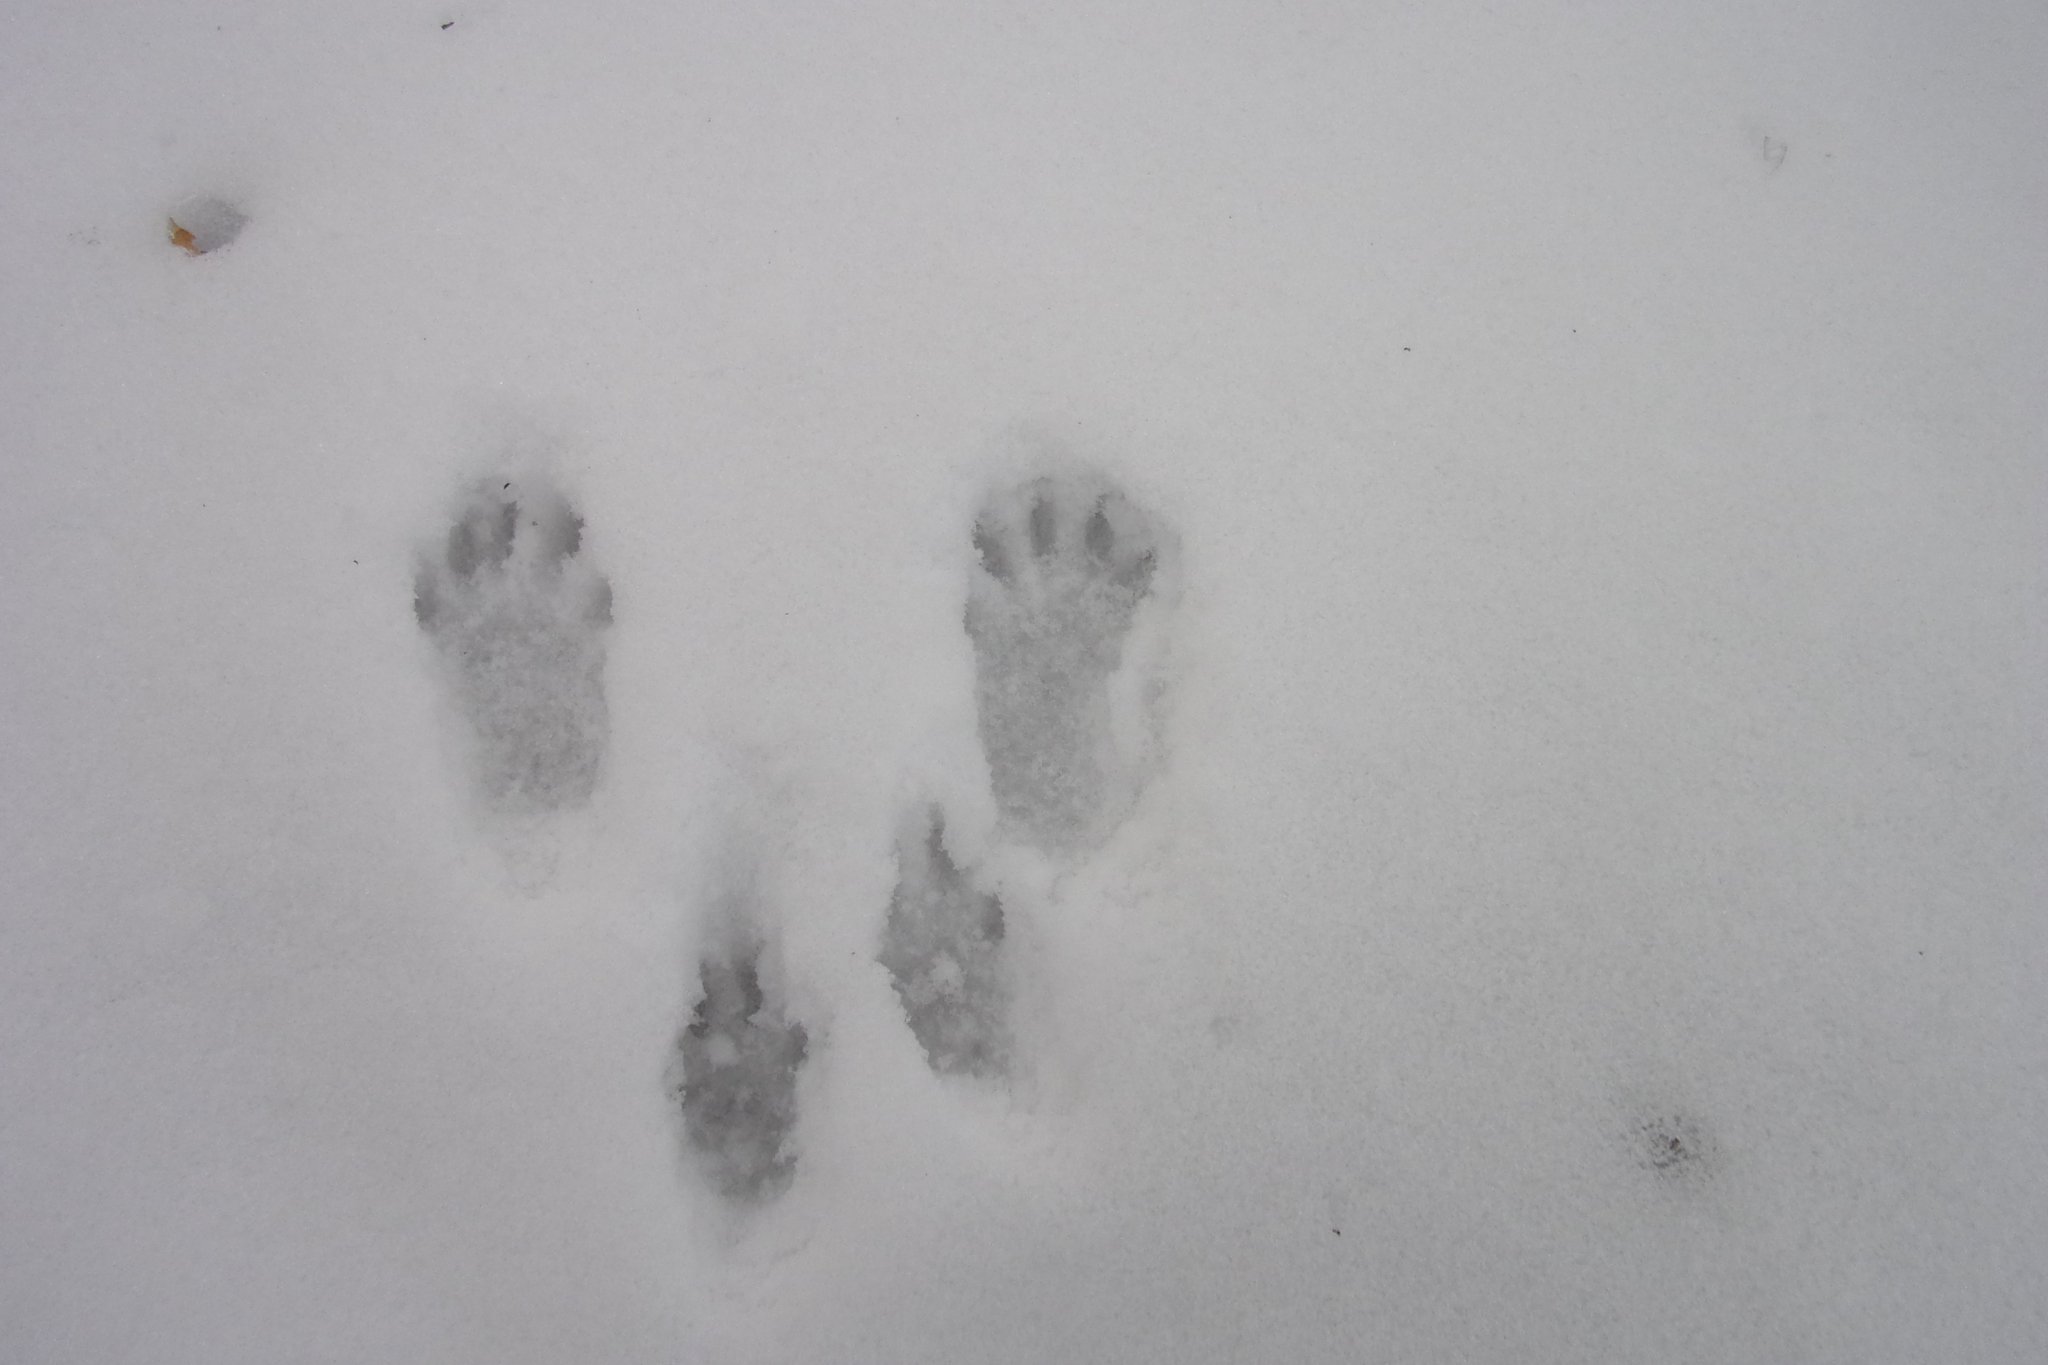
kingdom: Animalia
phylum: Chordata
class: Mammalia
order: Rodentia
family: Sciuridae
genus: Sciurus
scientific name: Sciurus vulgaris
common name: Eurasian red squirrel
